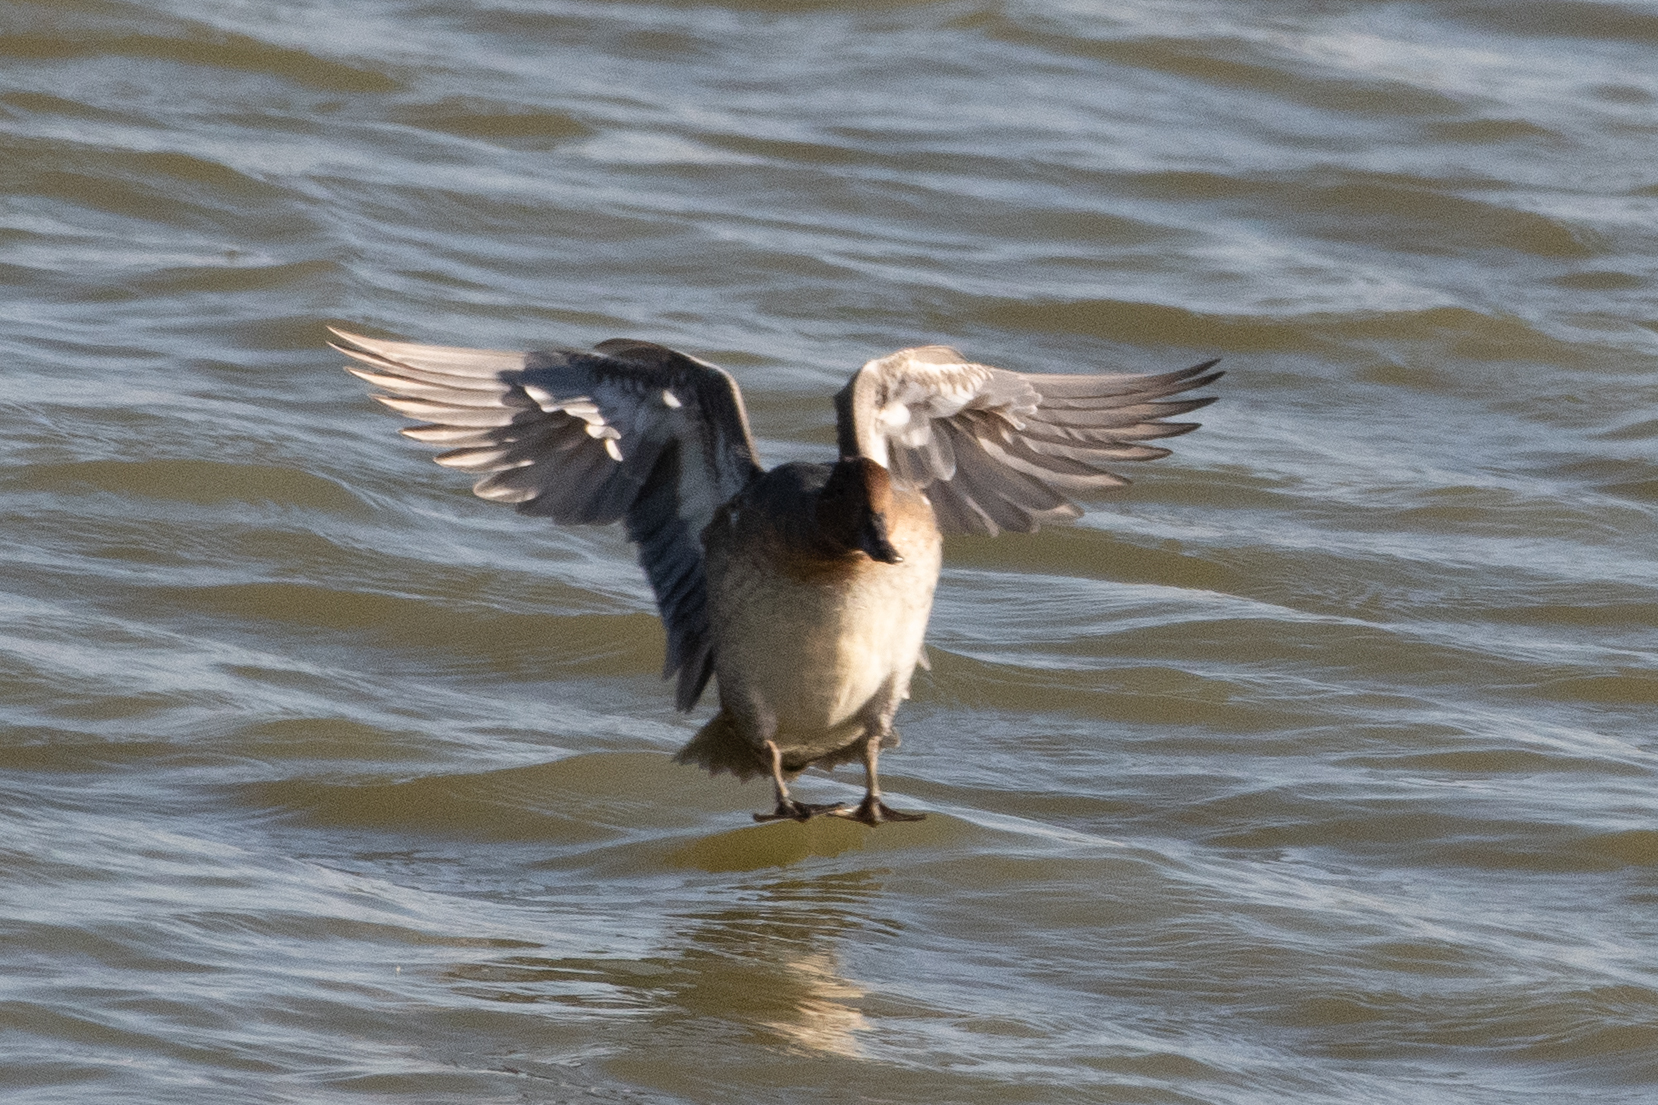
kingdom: Animalia
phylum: Chordata
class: Aves
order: Anseriformes
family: Anatidae
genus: Anas
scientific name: Anas acuta
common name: Northern pintail
